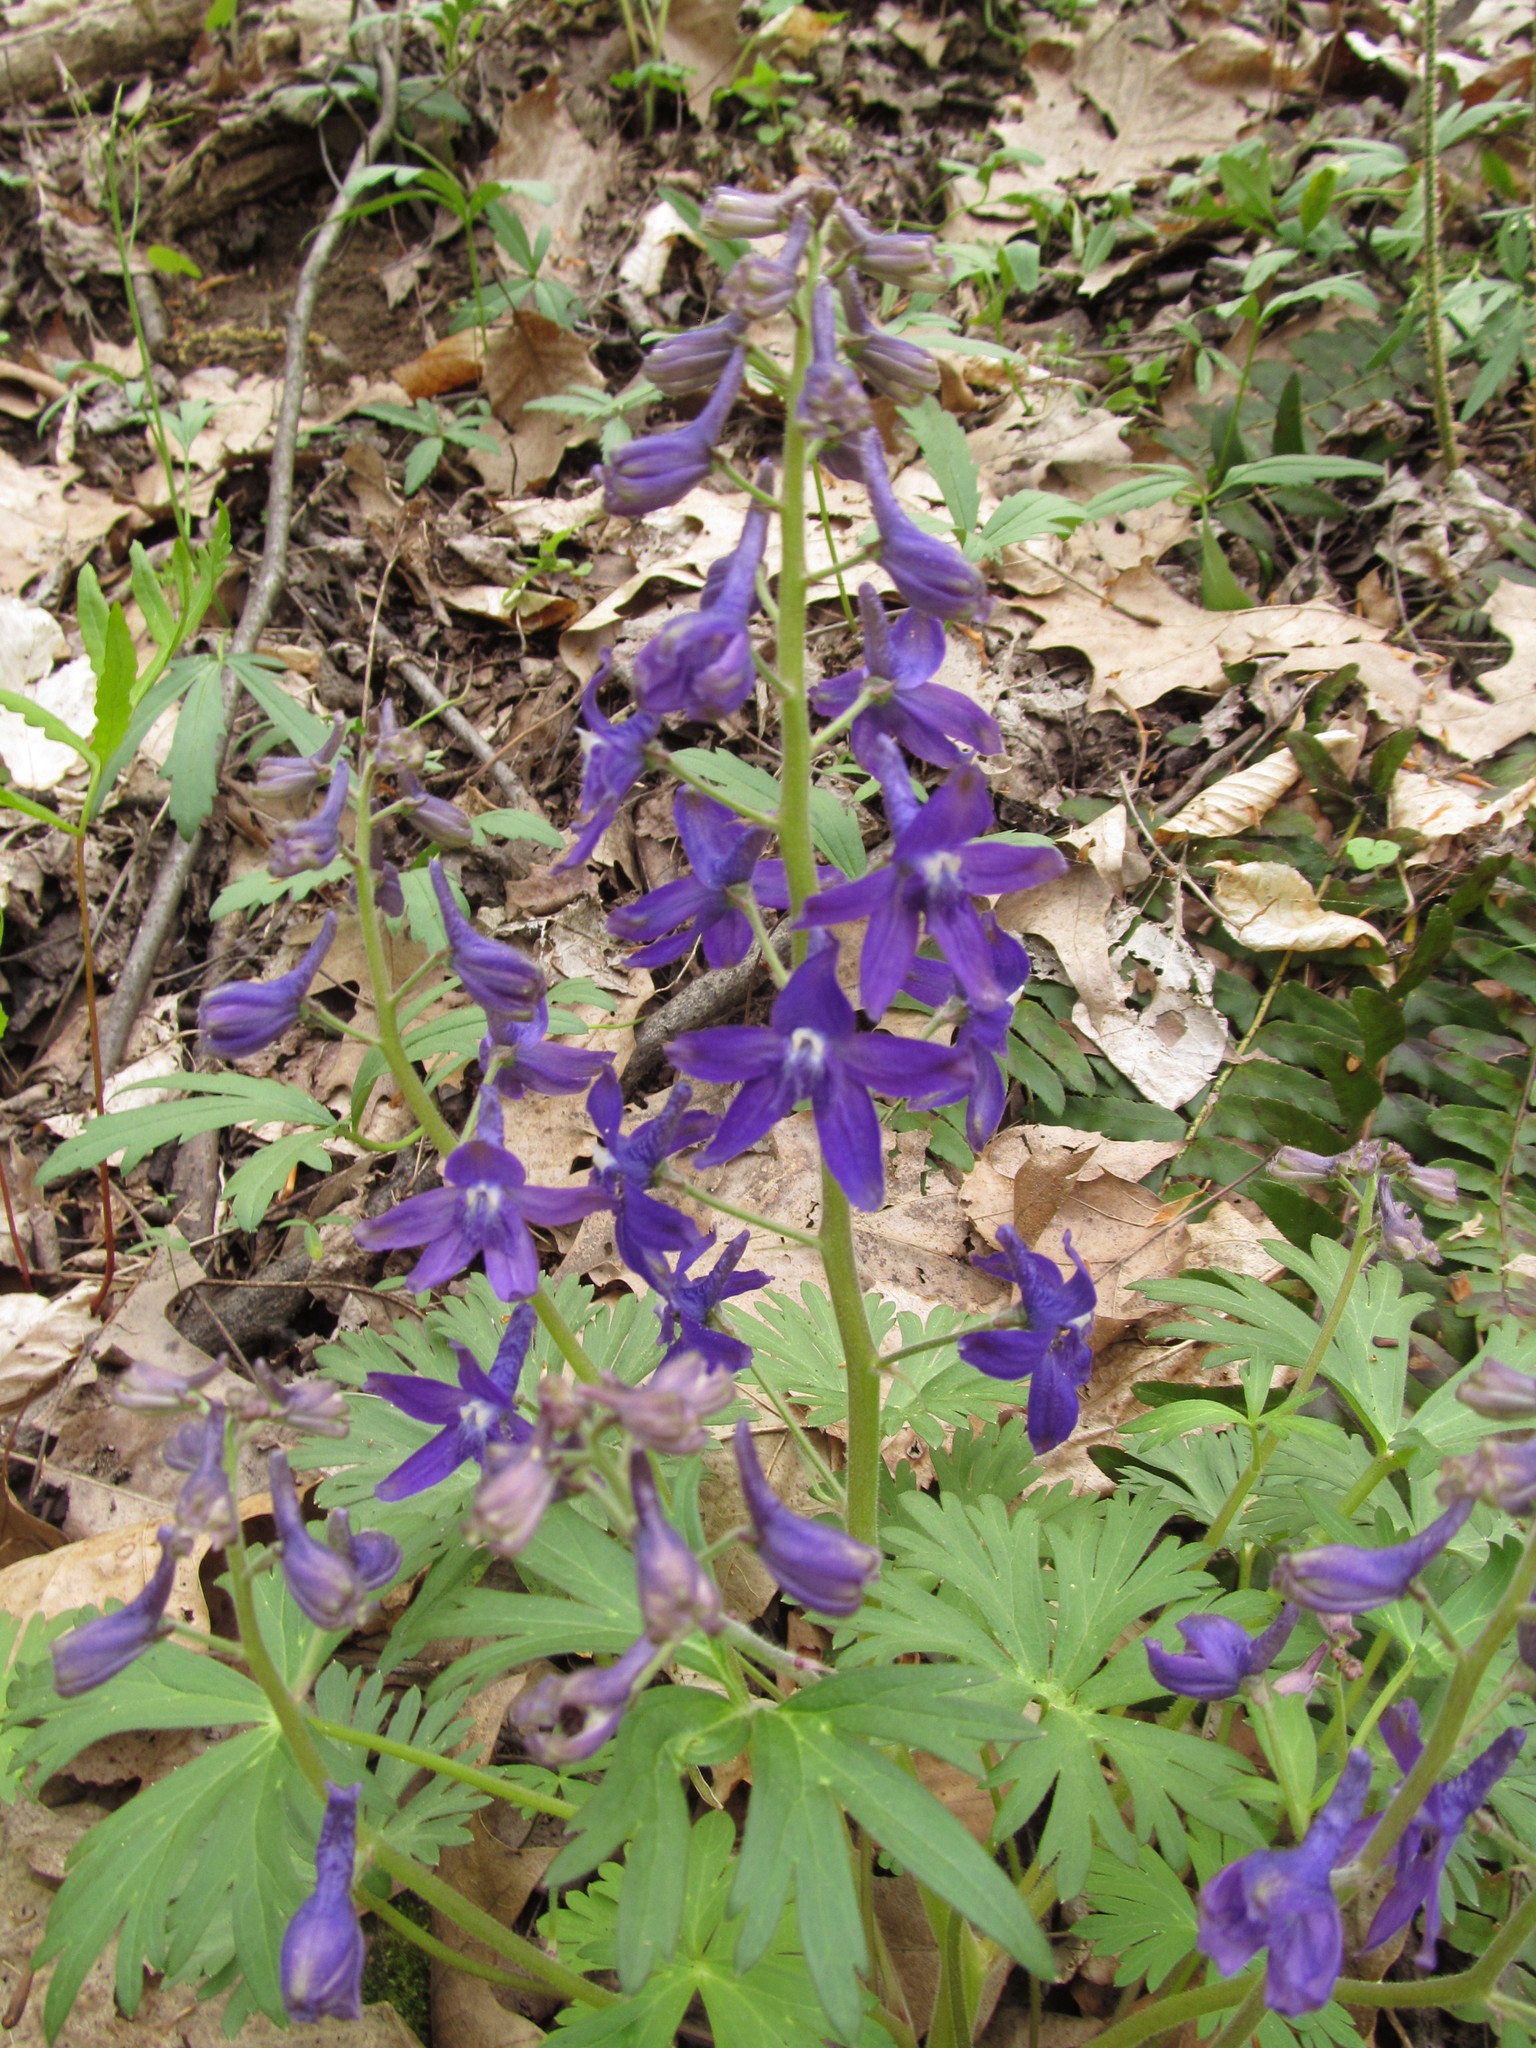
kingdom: Plantae
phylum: Tracheophyta
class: Magnoliopsida
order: Ranunculales
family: Ranunculaceae
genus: Delphinium
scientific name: Delphinium tricorne
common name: Dwarf larkspur
